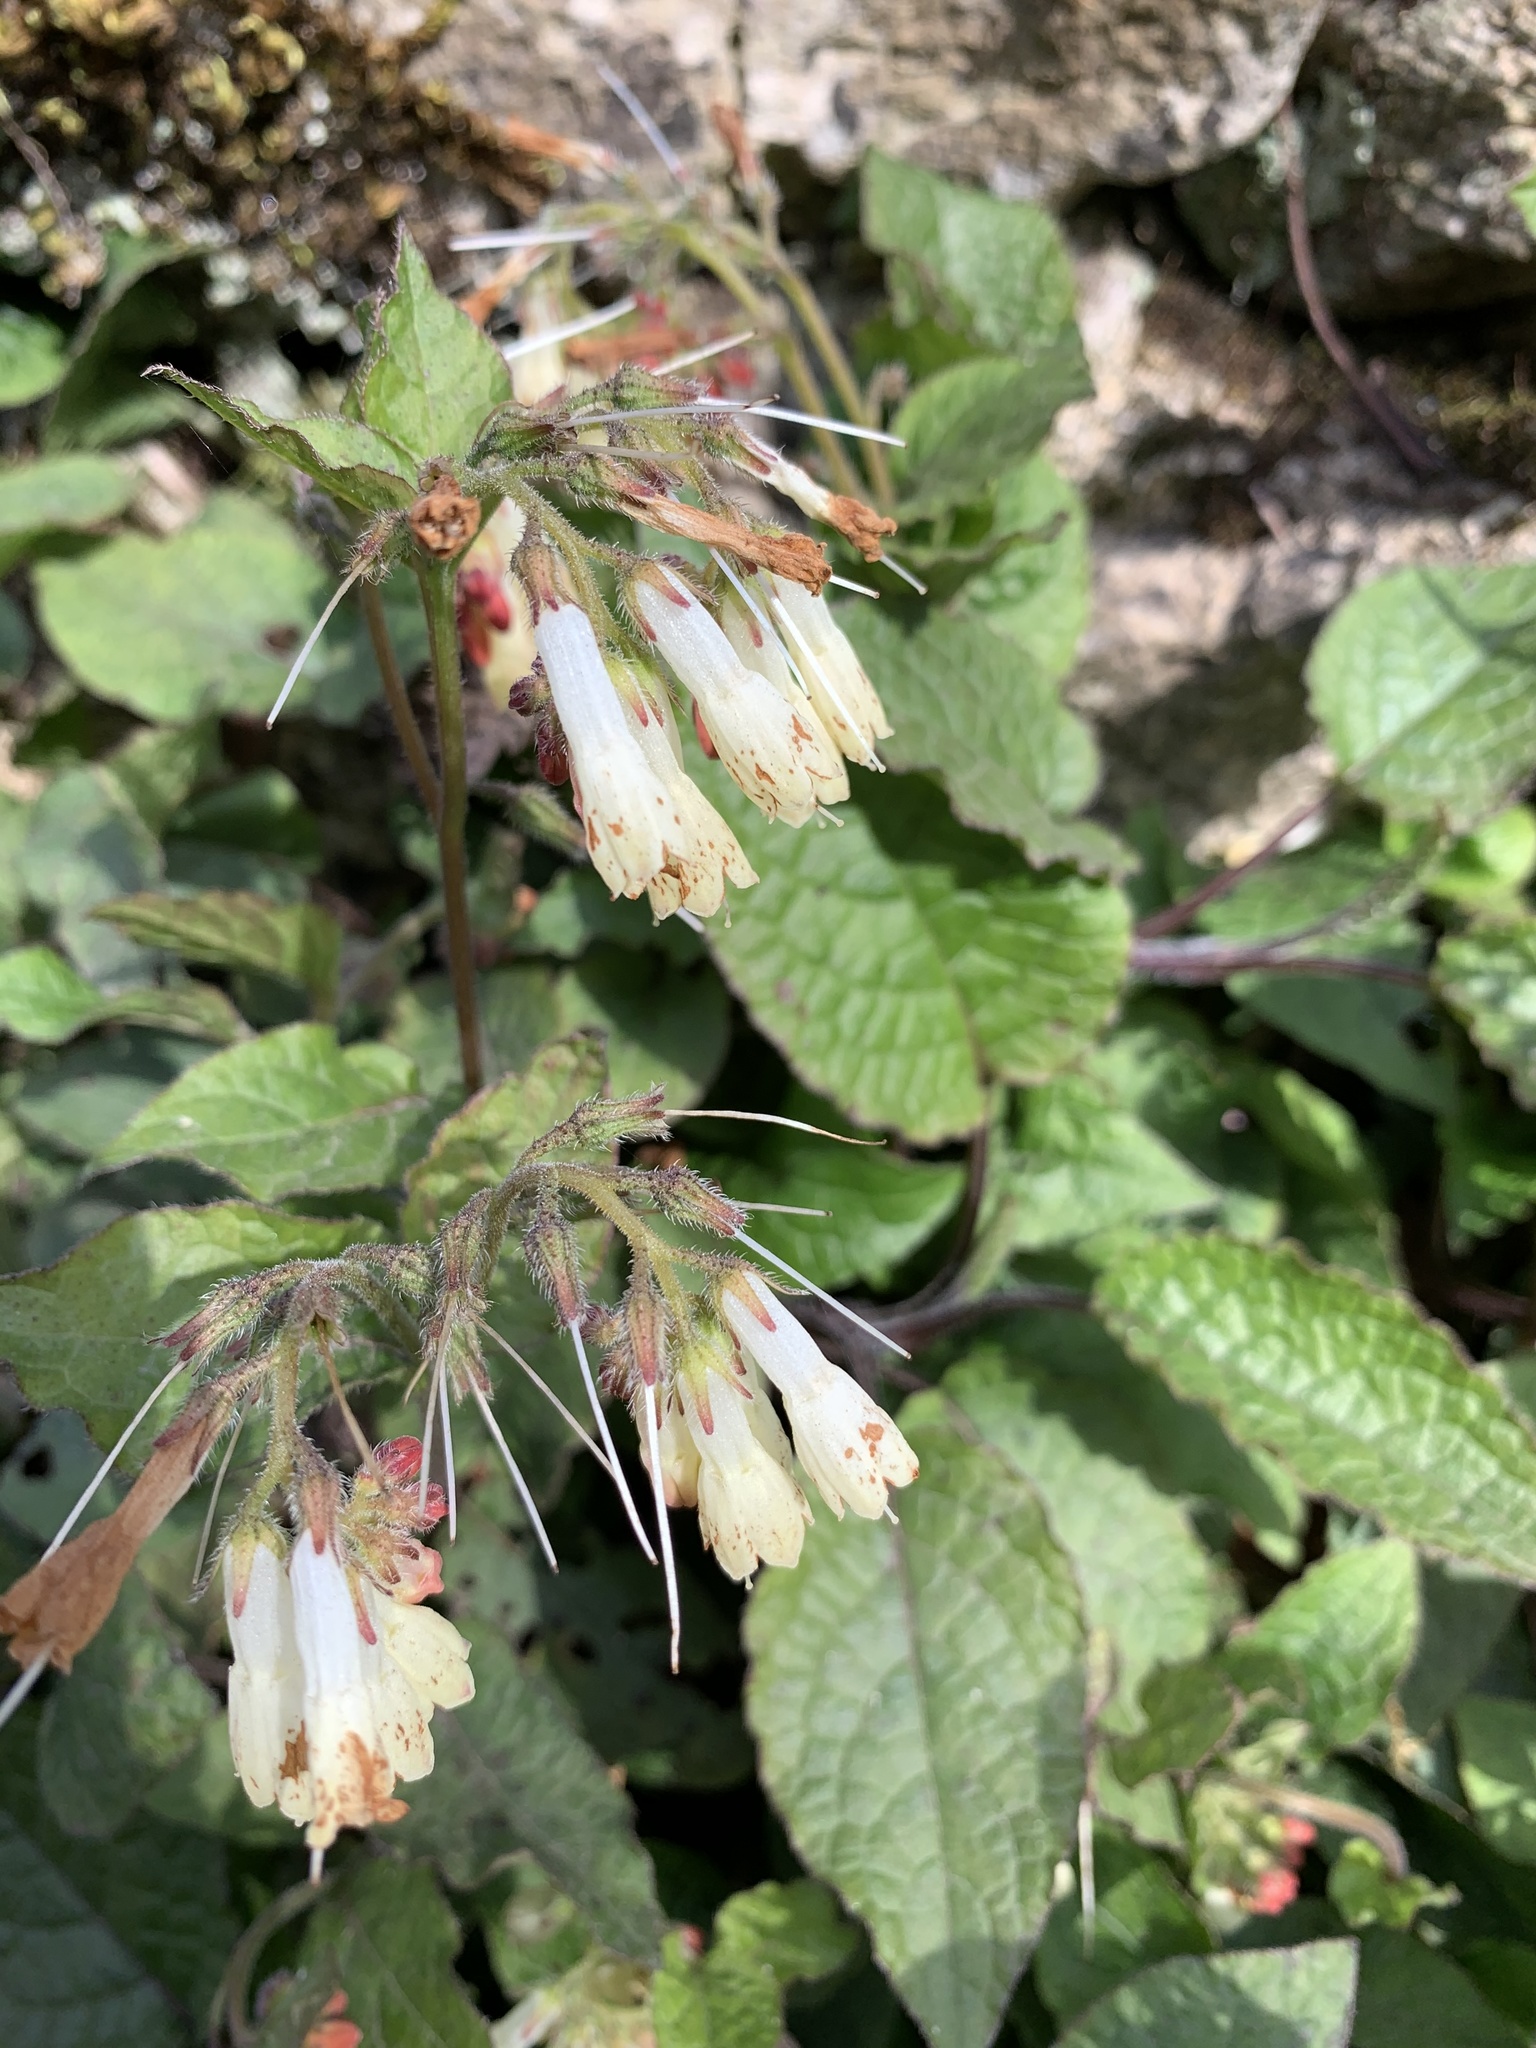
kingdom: Plantae
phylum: Tracheophyta
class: Magnoliopsida
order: Boraginales
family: Boraginaceae
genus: Symphytum
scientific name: Symphytum grandiflorum
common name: Creeping comfrey
